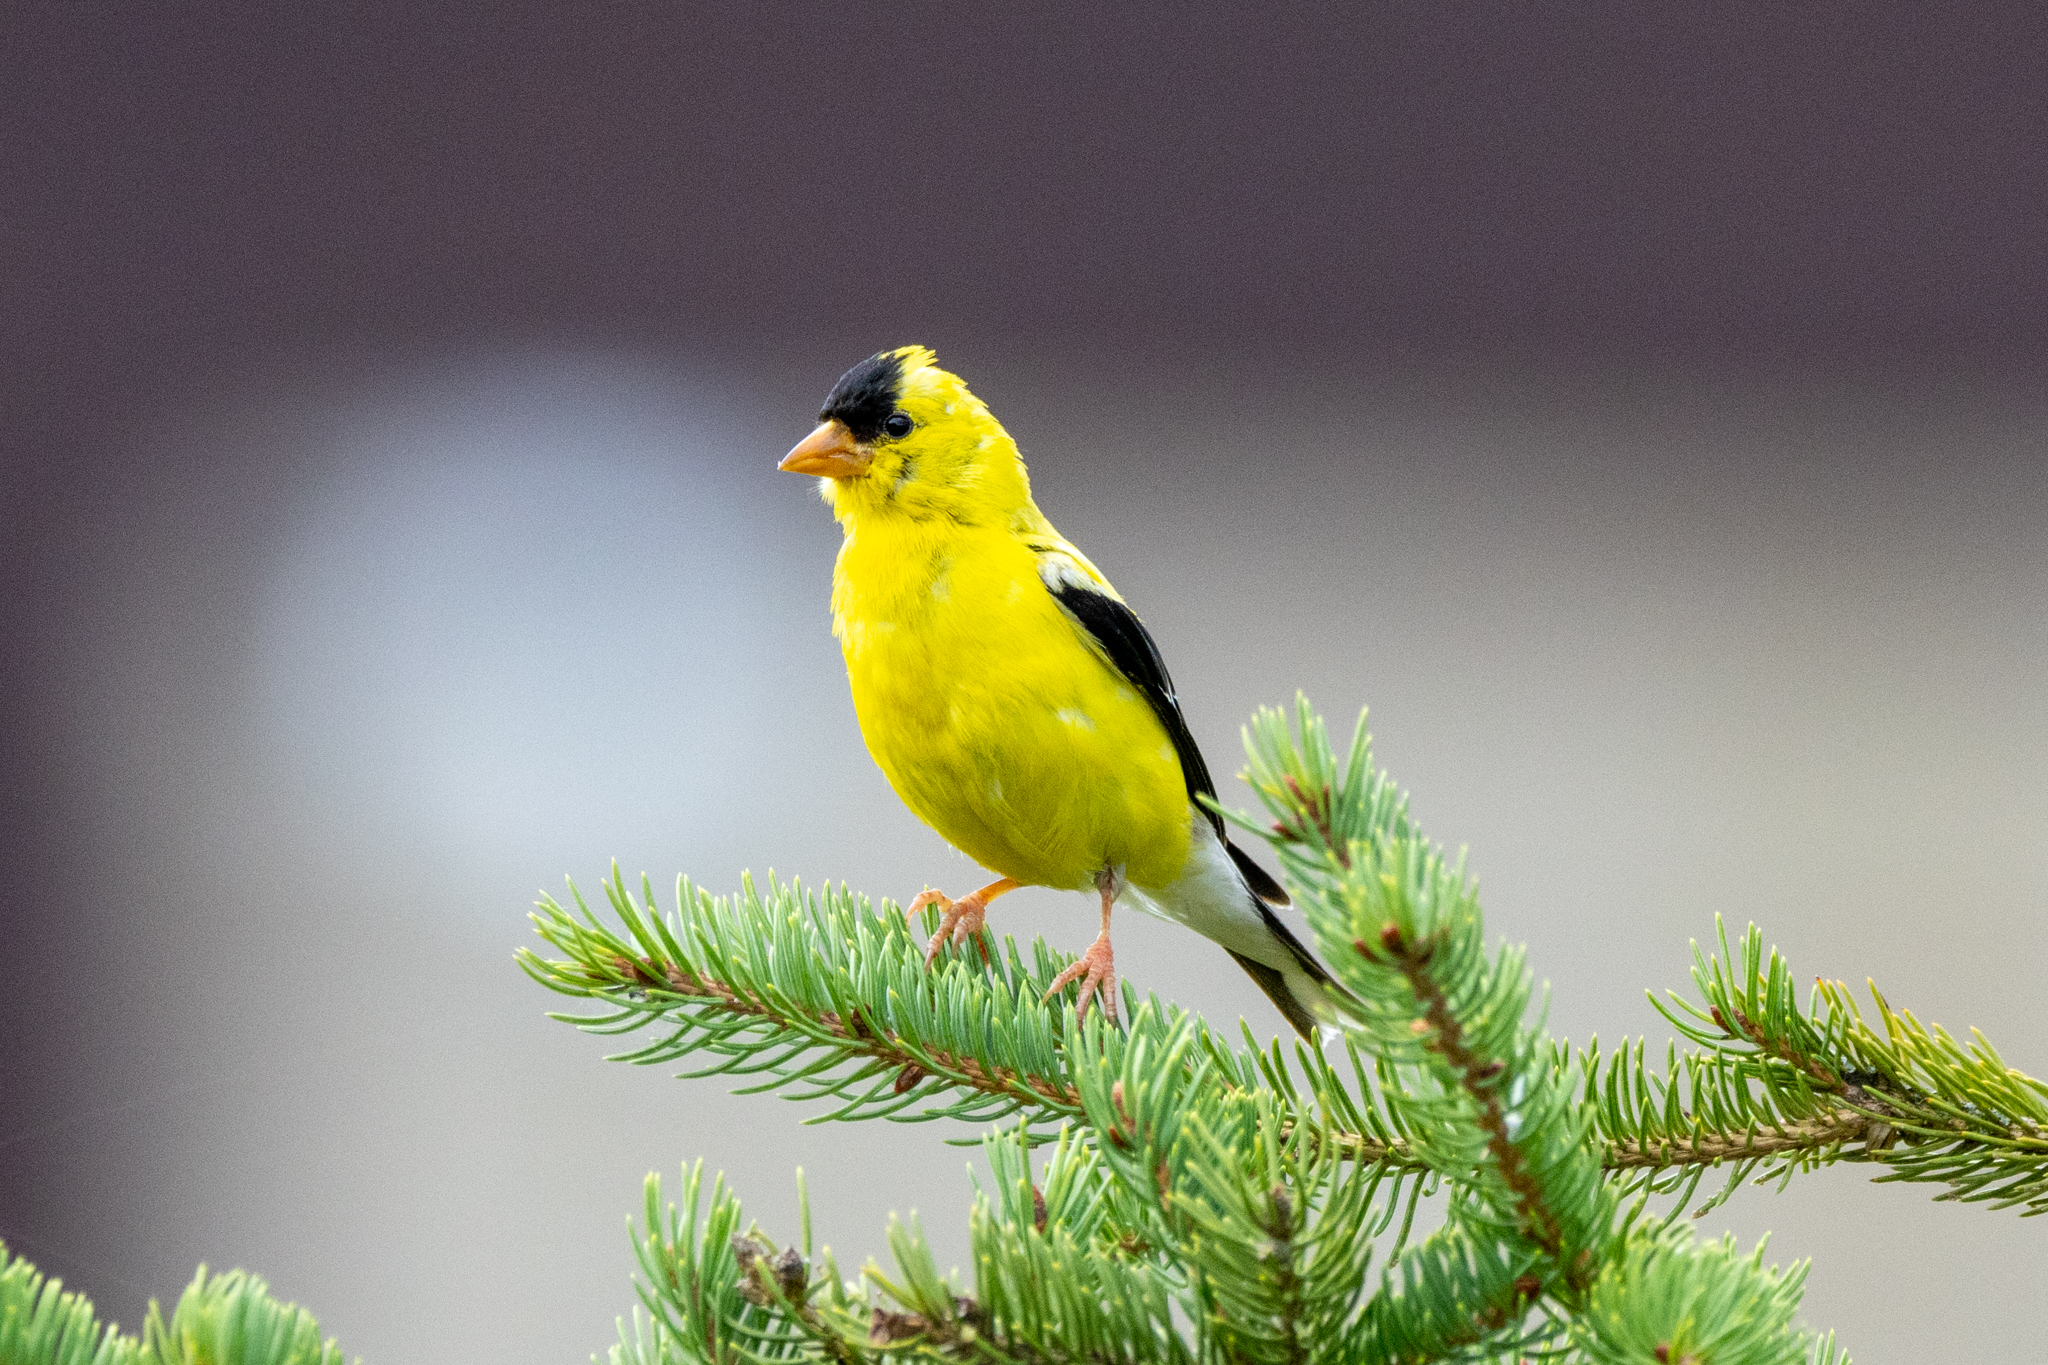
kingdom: Animalia
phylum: Chordata
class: Aves
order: Passeriformes
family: Fringillidae
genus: Spinus
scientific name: Spinus tristis
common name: American goldfinch
